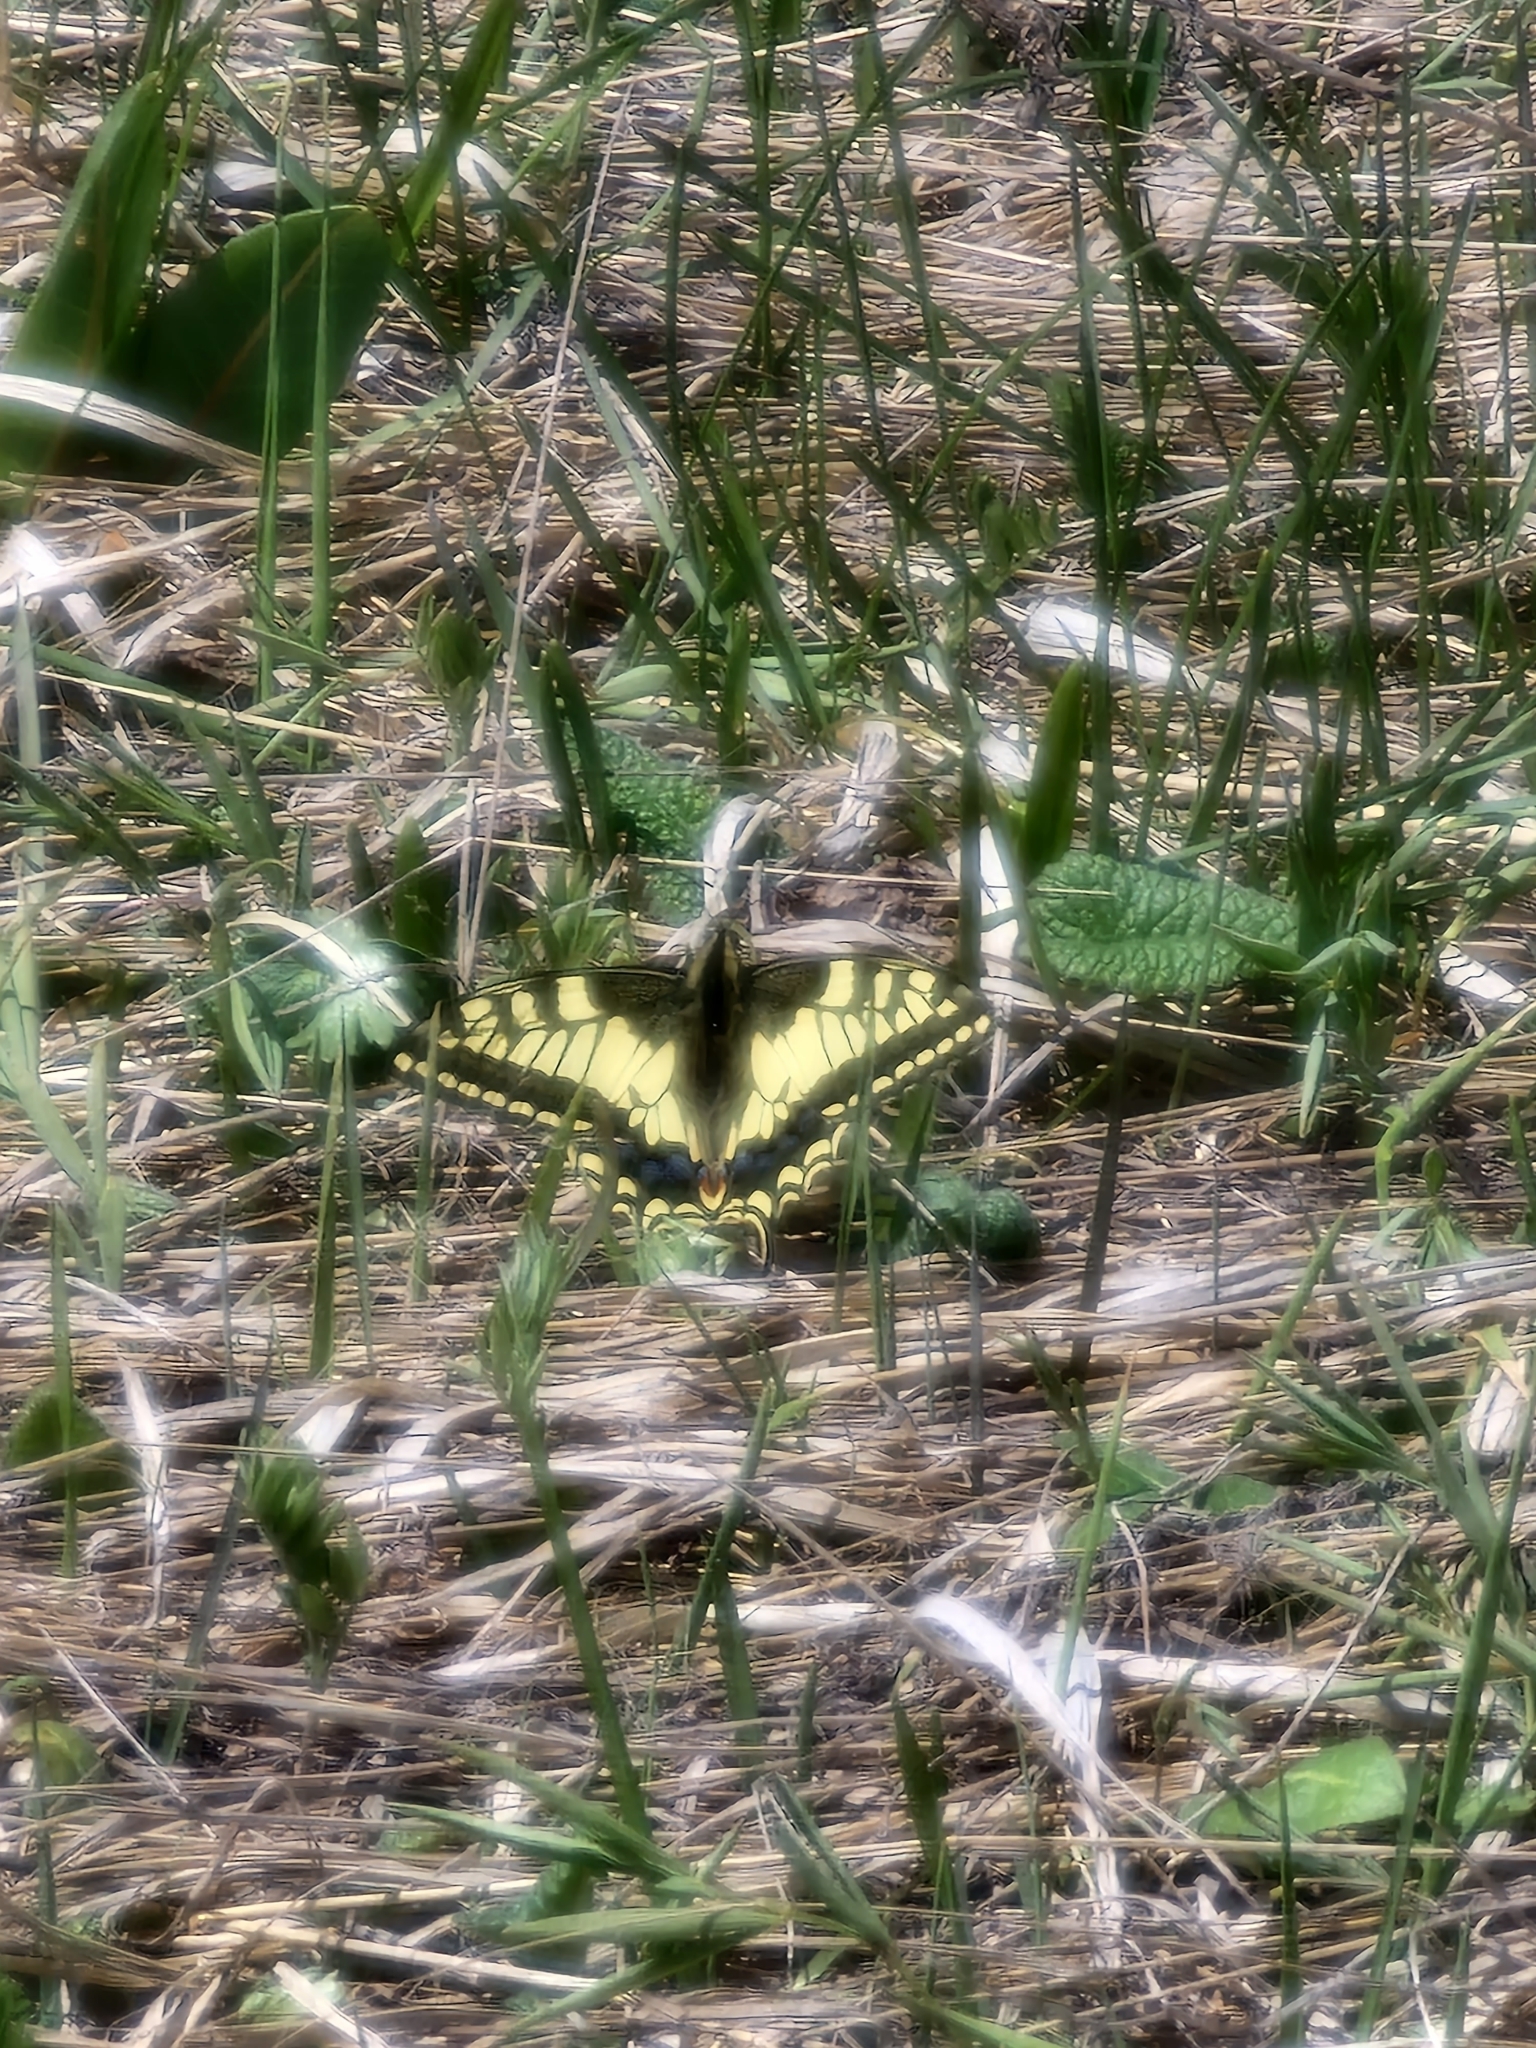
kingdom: Animalia
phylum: Arthropoda
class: Insecta
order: Lepidoptera
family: Papilionidae
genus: Papilio
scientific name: Papilio machaon
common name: Swallowtail
